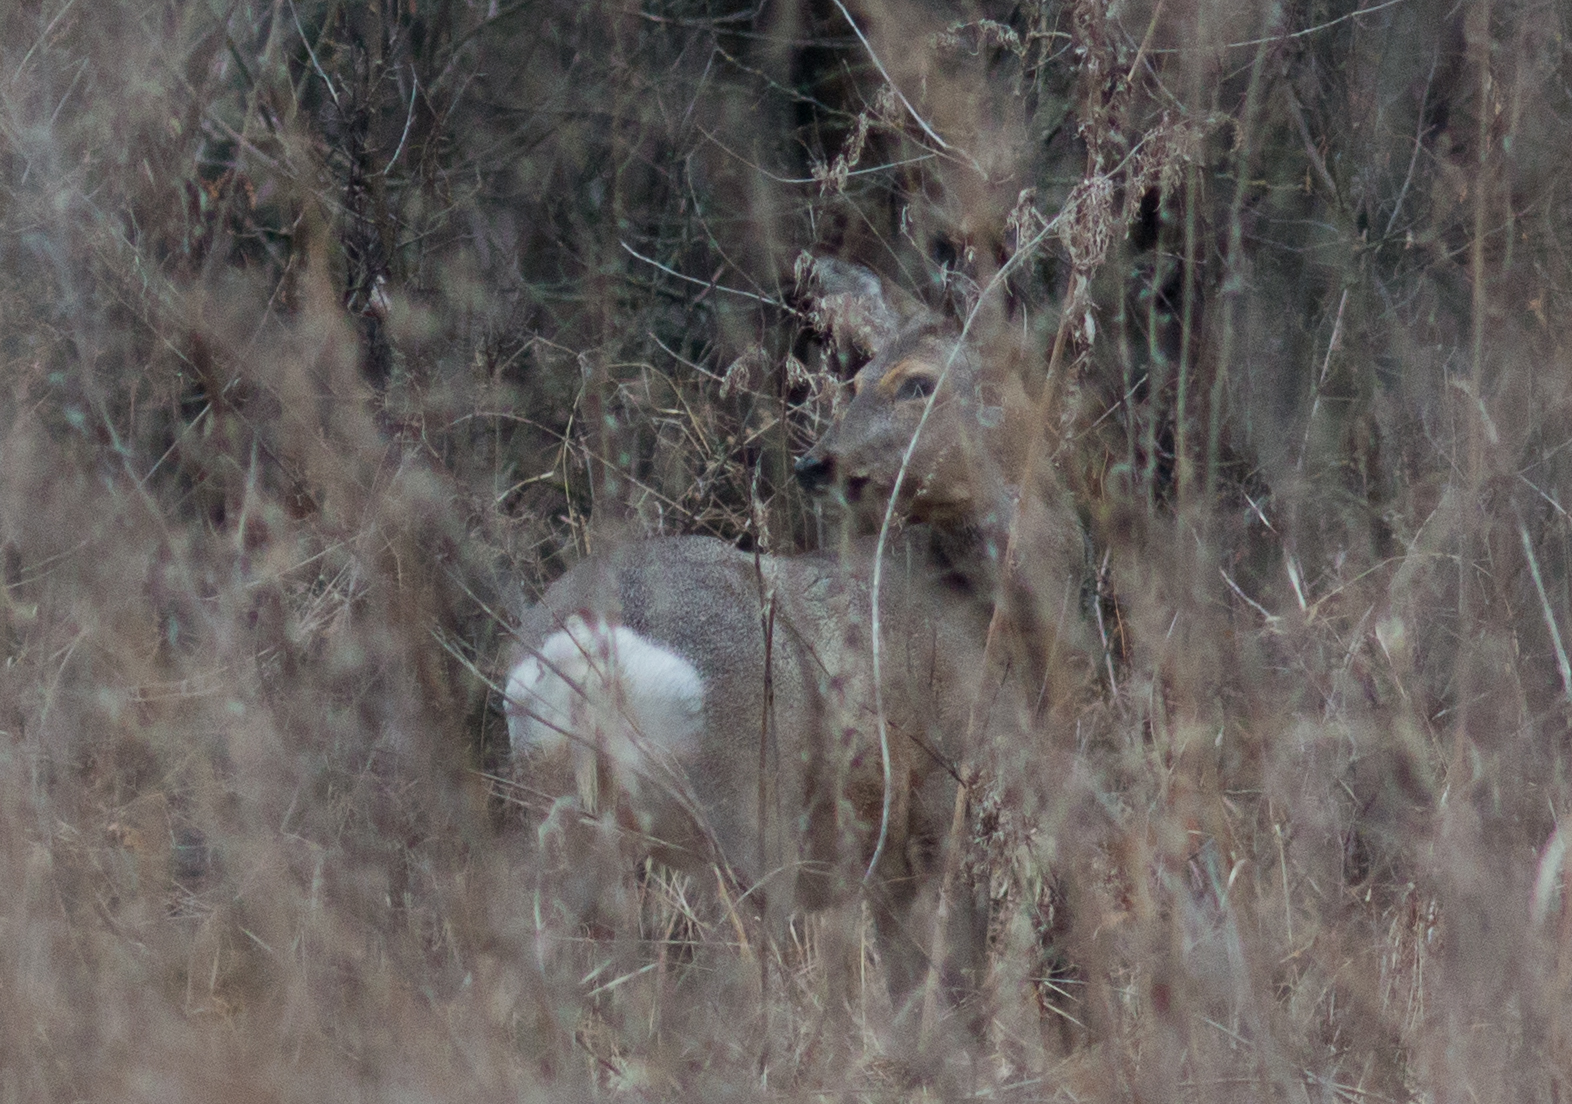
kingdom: Animalia
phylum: Chordata
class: Mammalia
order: Artiodactyla
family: Cervidae
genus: Capreolus
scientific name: Capreolus pygargus
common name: Siberian roe
